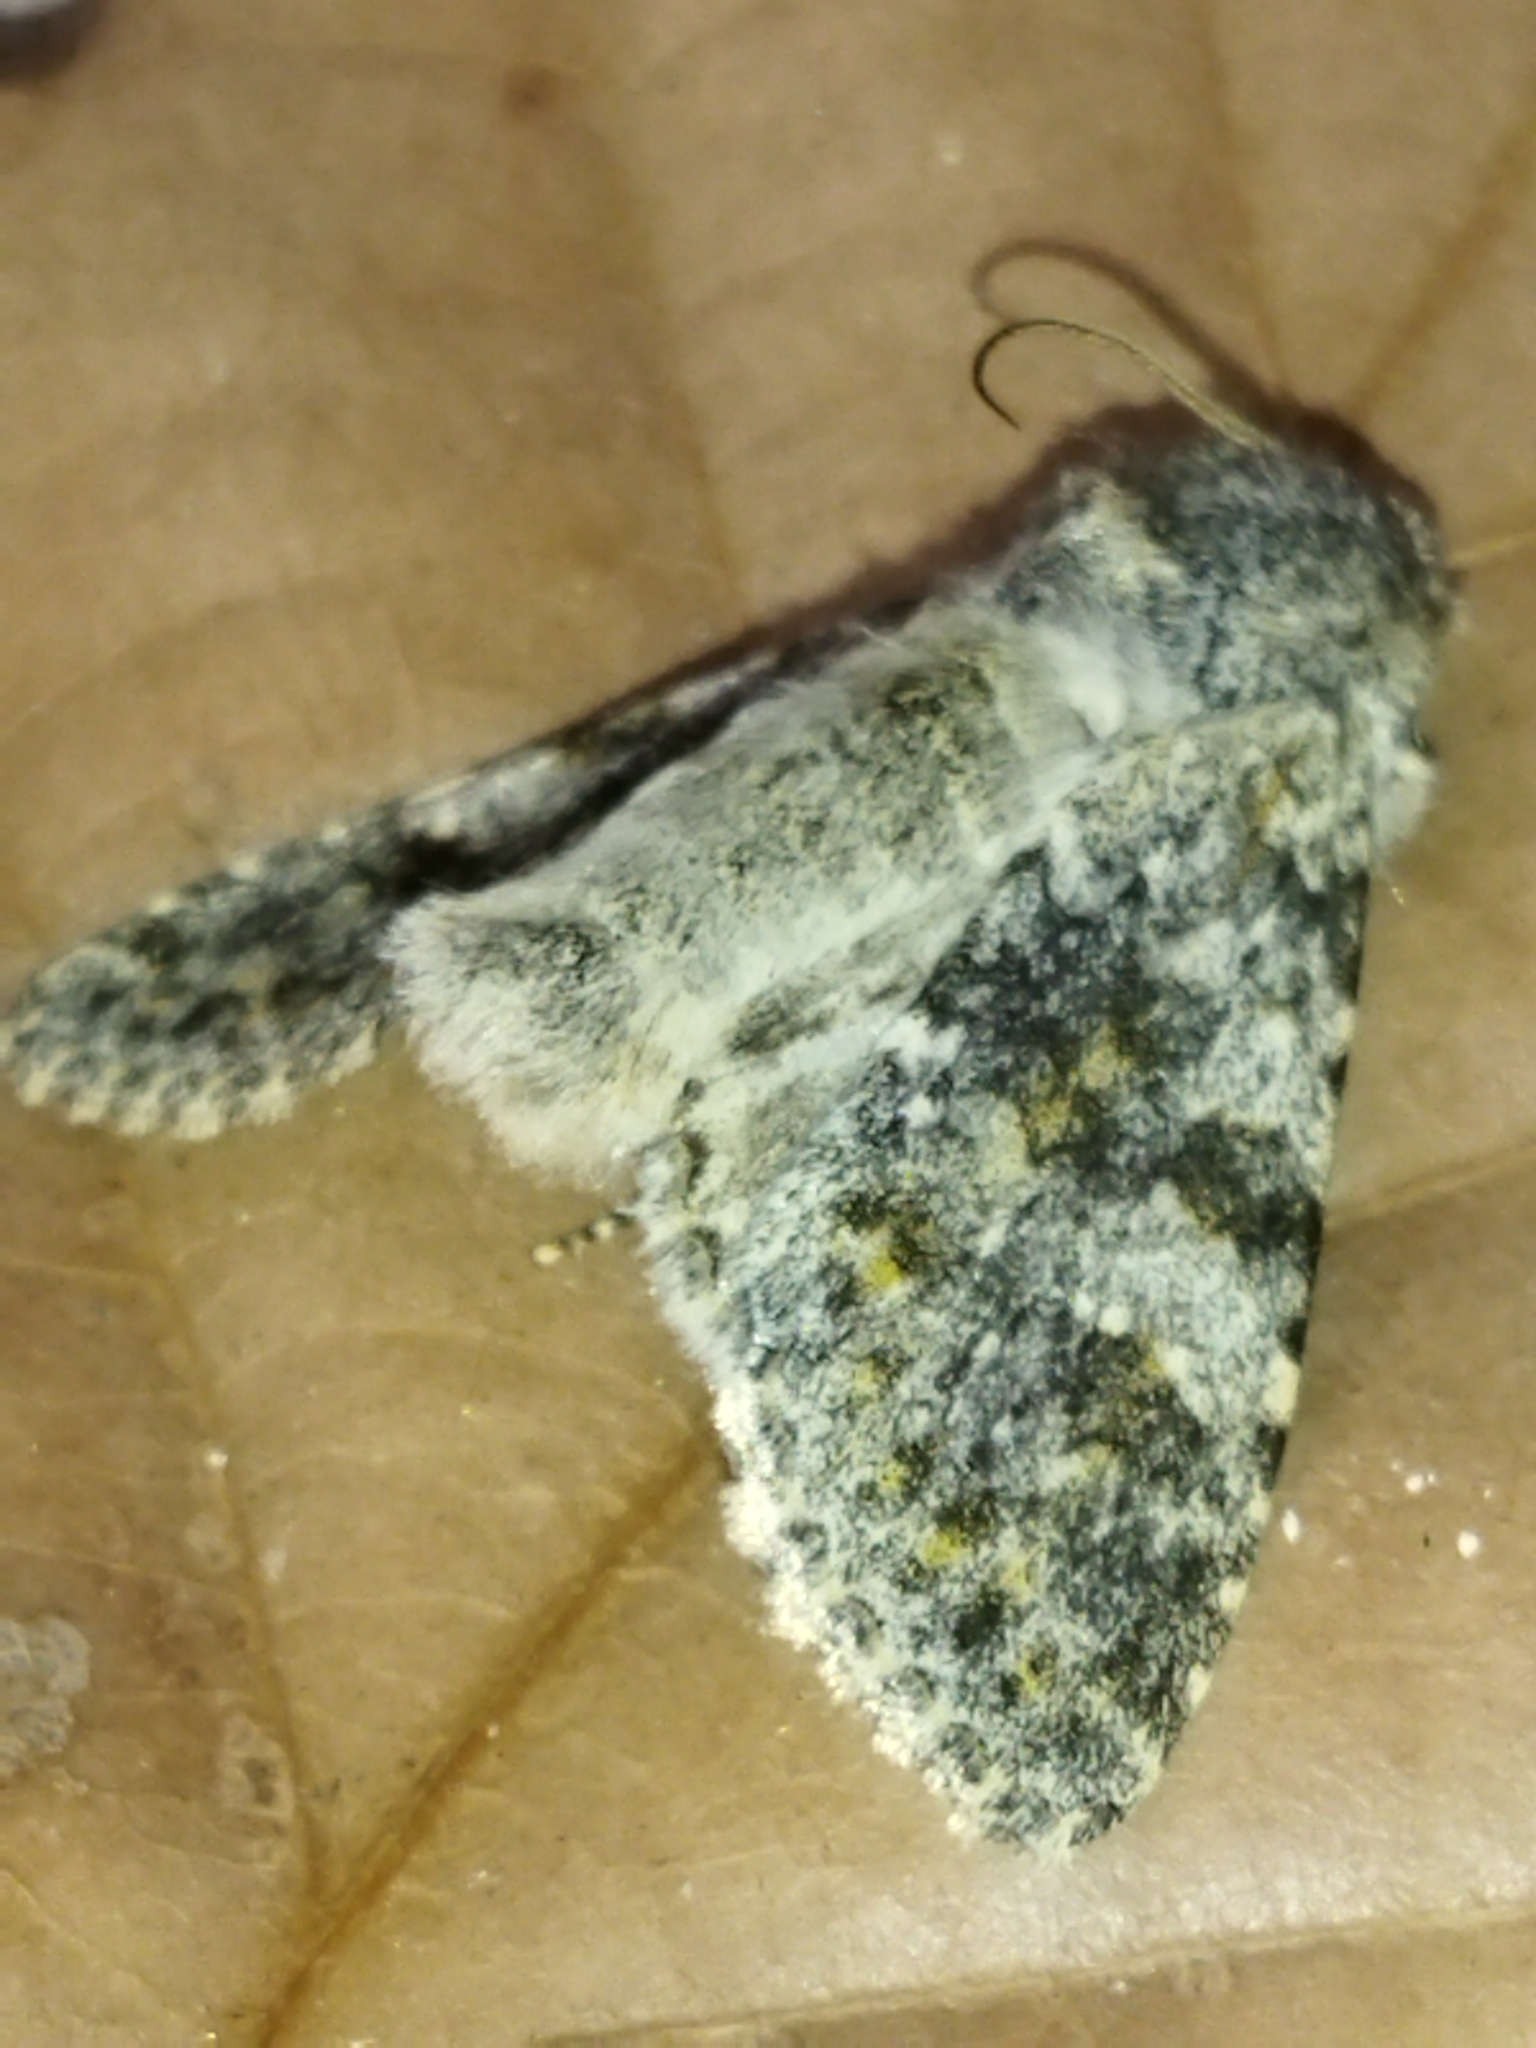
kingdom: Animalia
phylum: Arthropoda
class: Insecta
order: Lepidoptera
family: Noctuidae
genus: Polymixis
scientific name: Polymixis rufocincta
